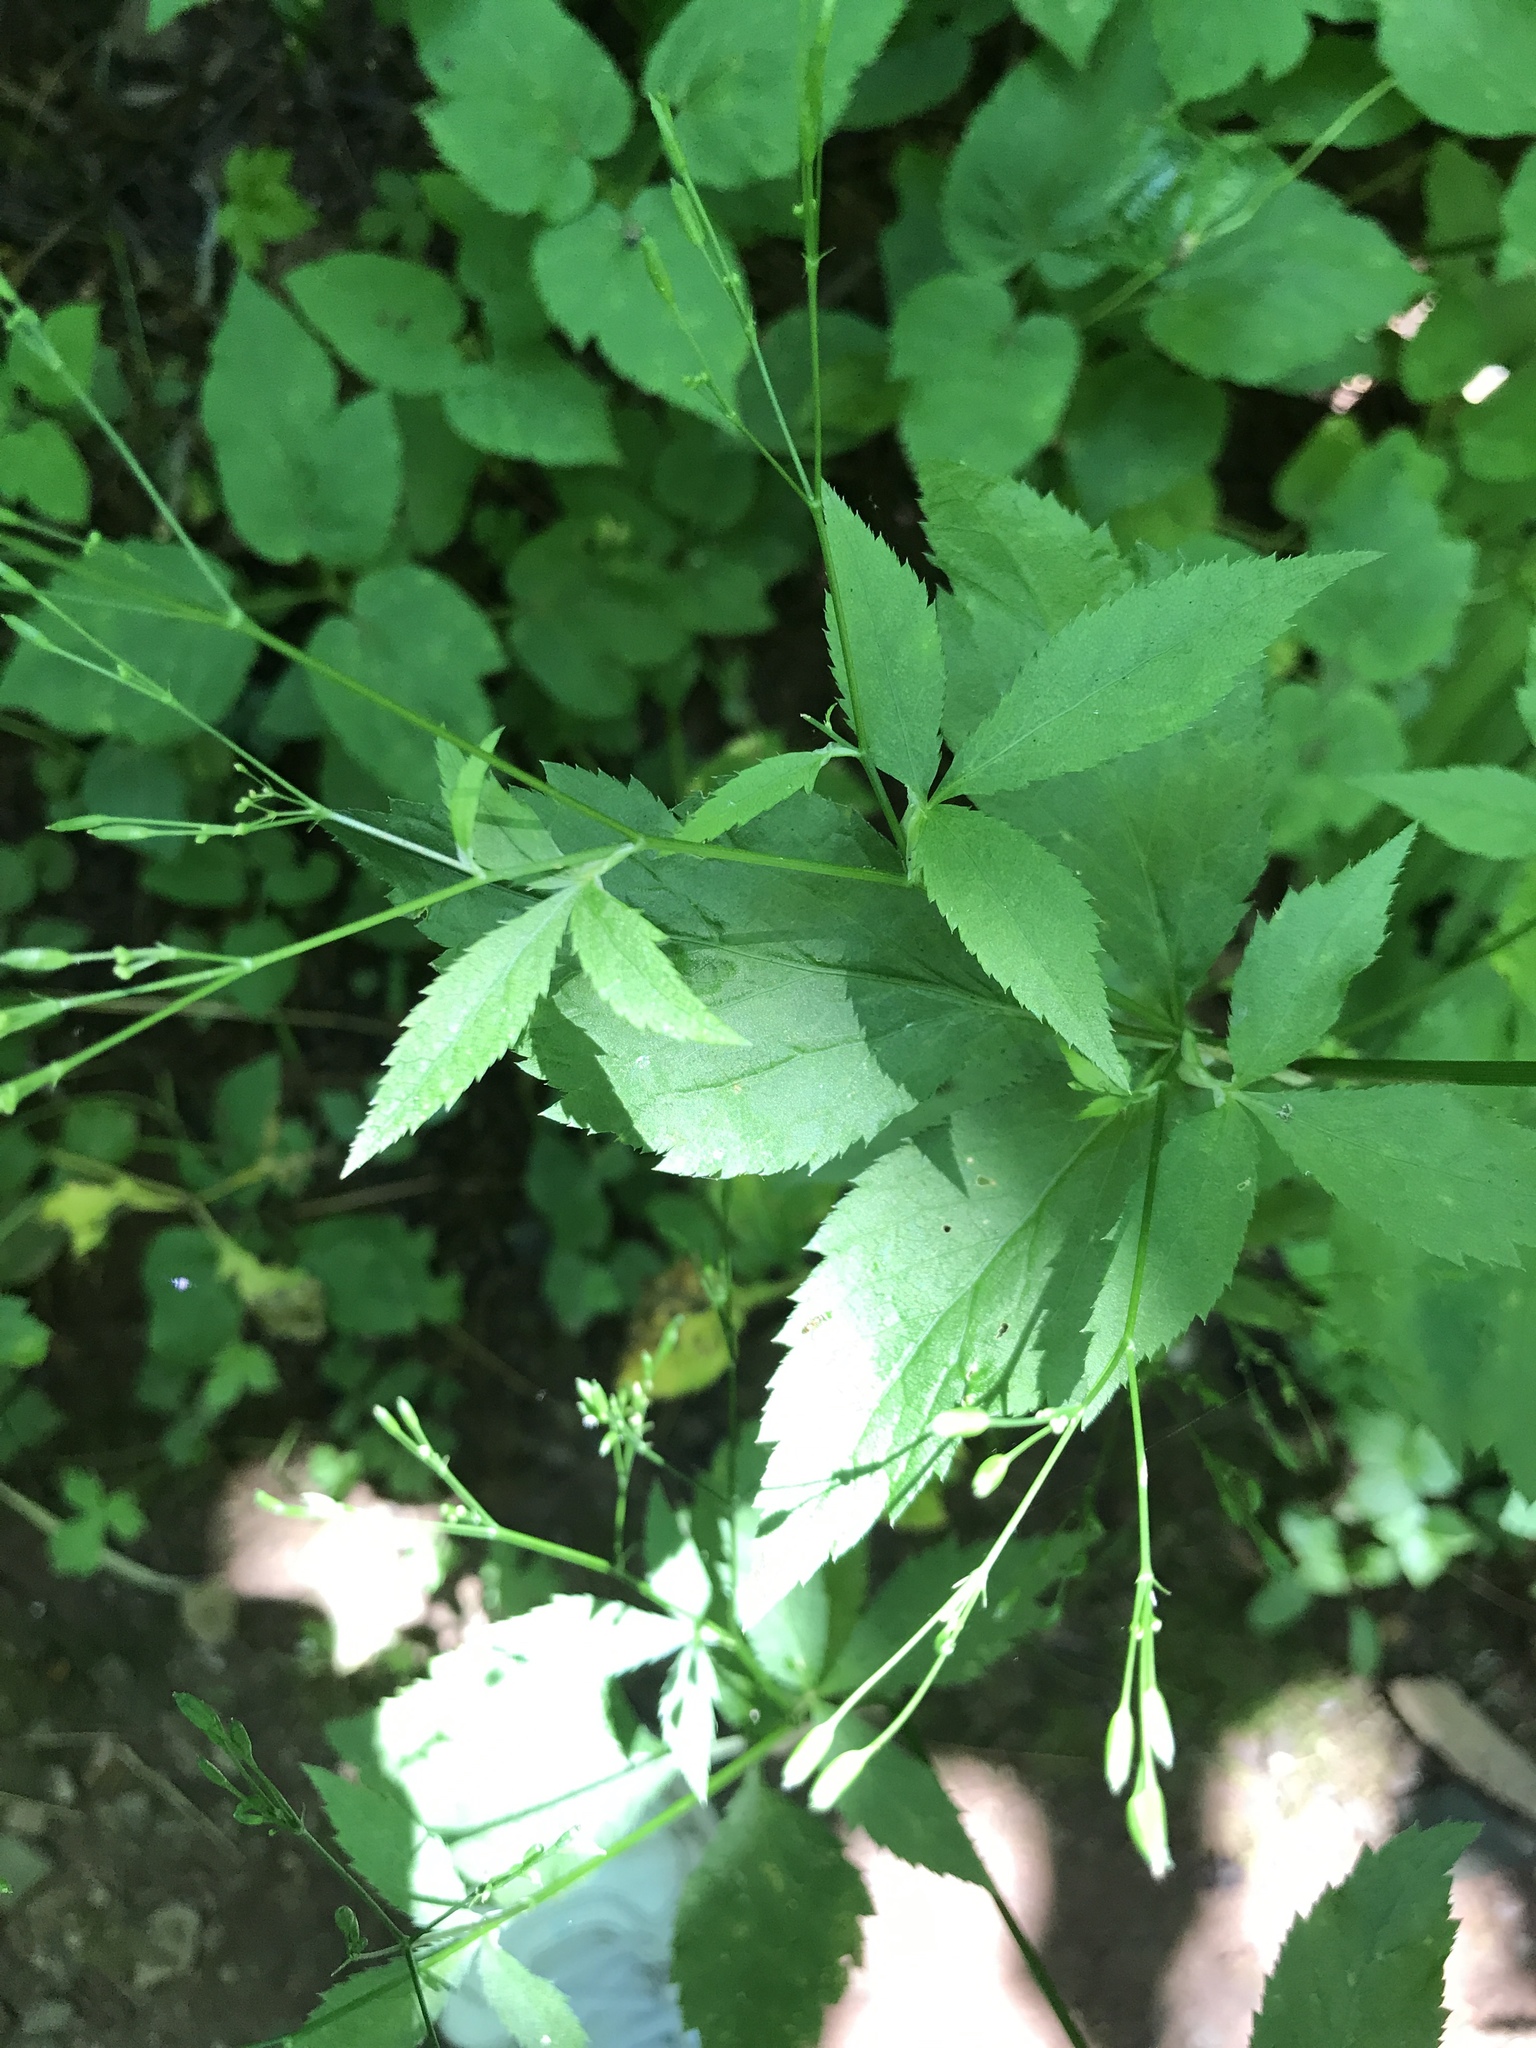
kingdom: Plantae
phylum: Tracheophyta
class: Magnoliopsida
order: Apiales
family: Apiaceae
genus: Cryptotaenia
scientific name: Cryptotaenia canadensis
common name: Honewort
